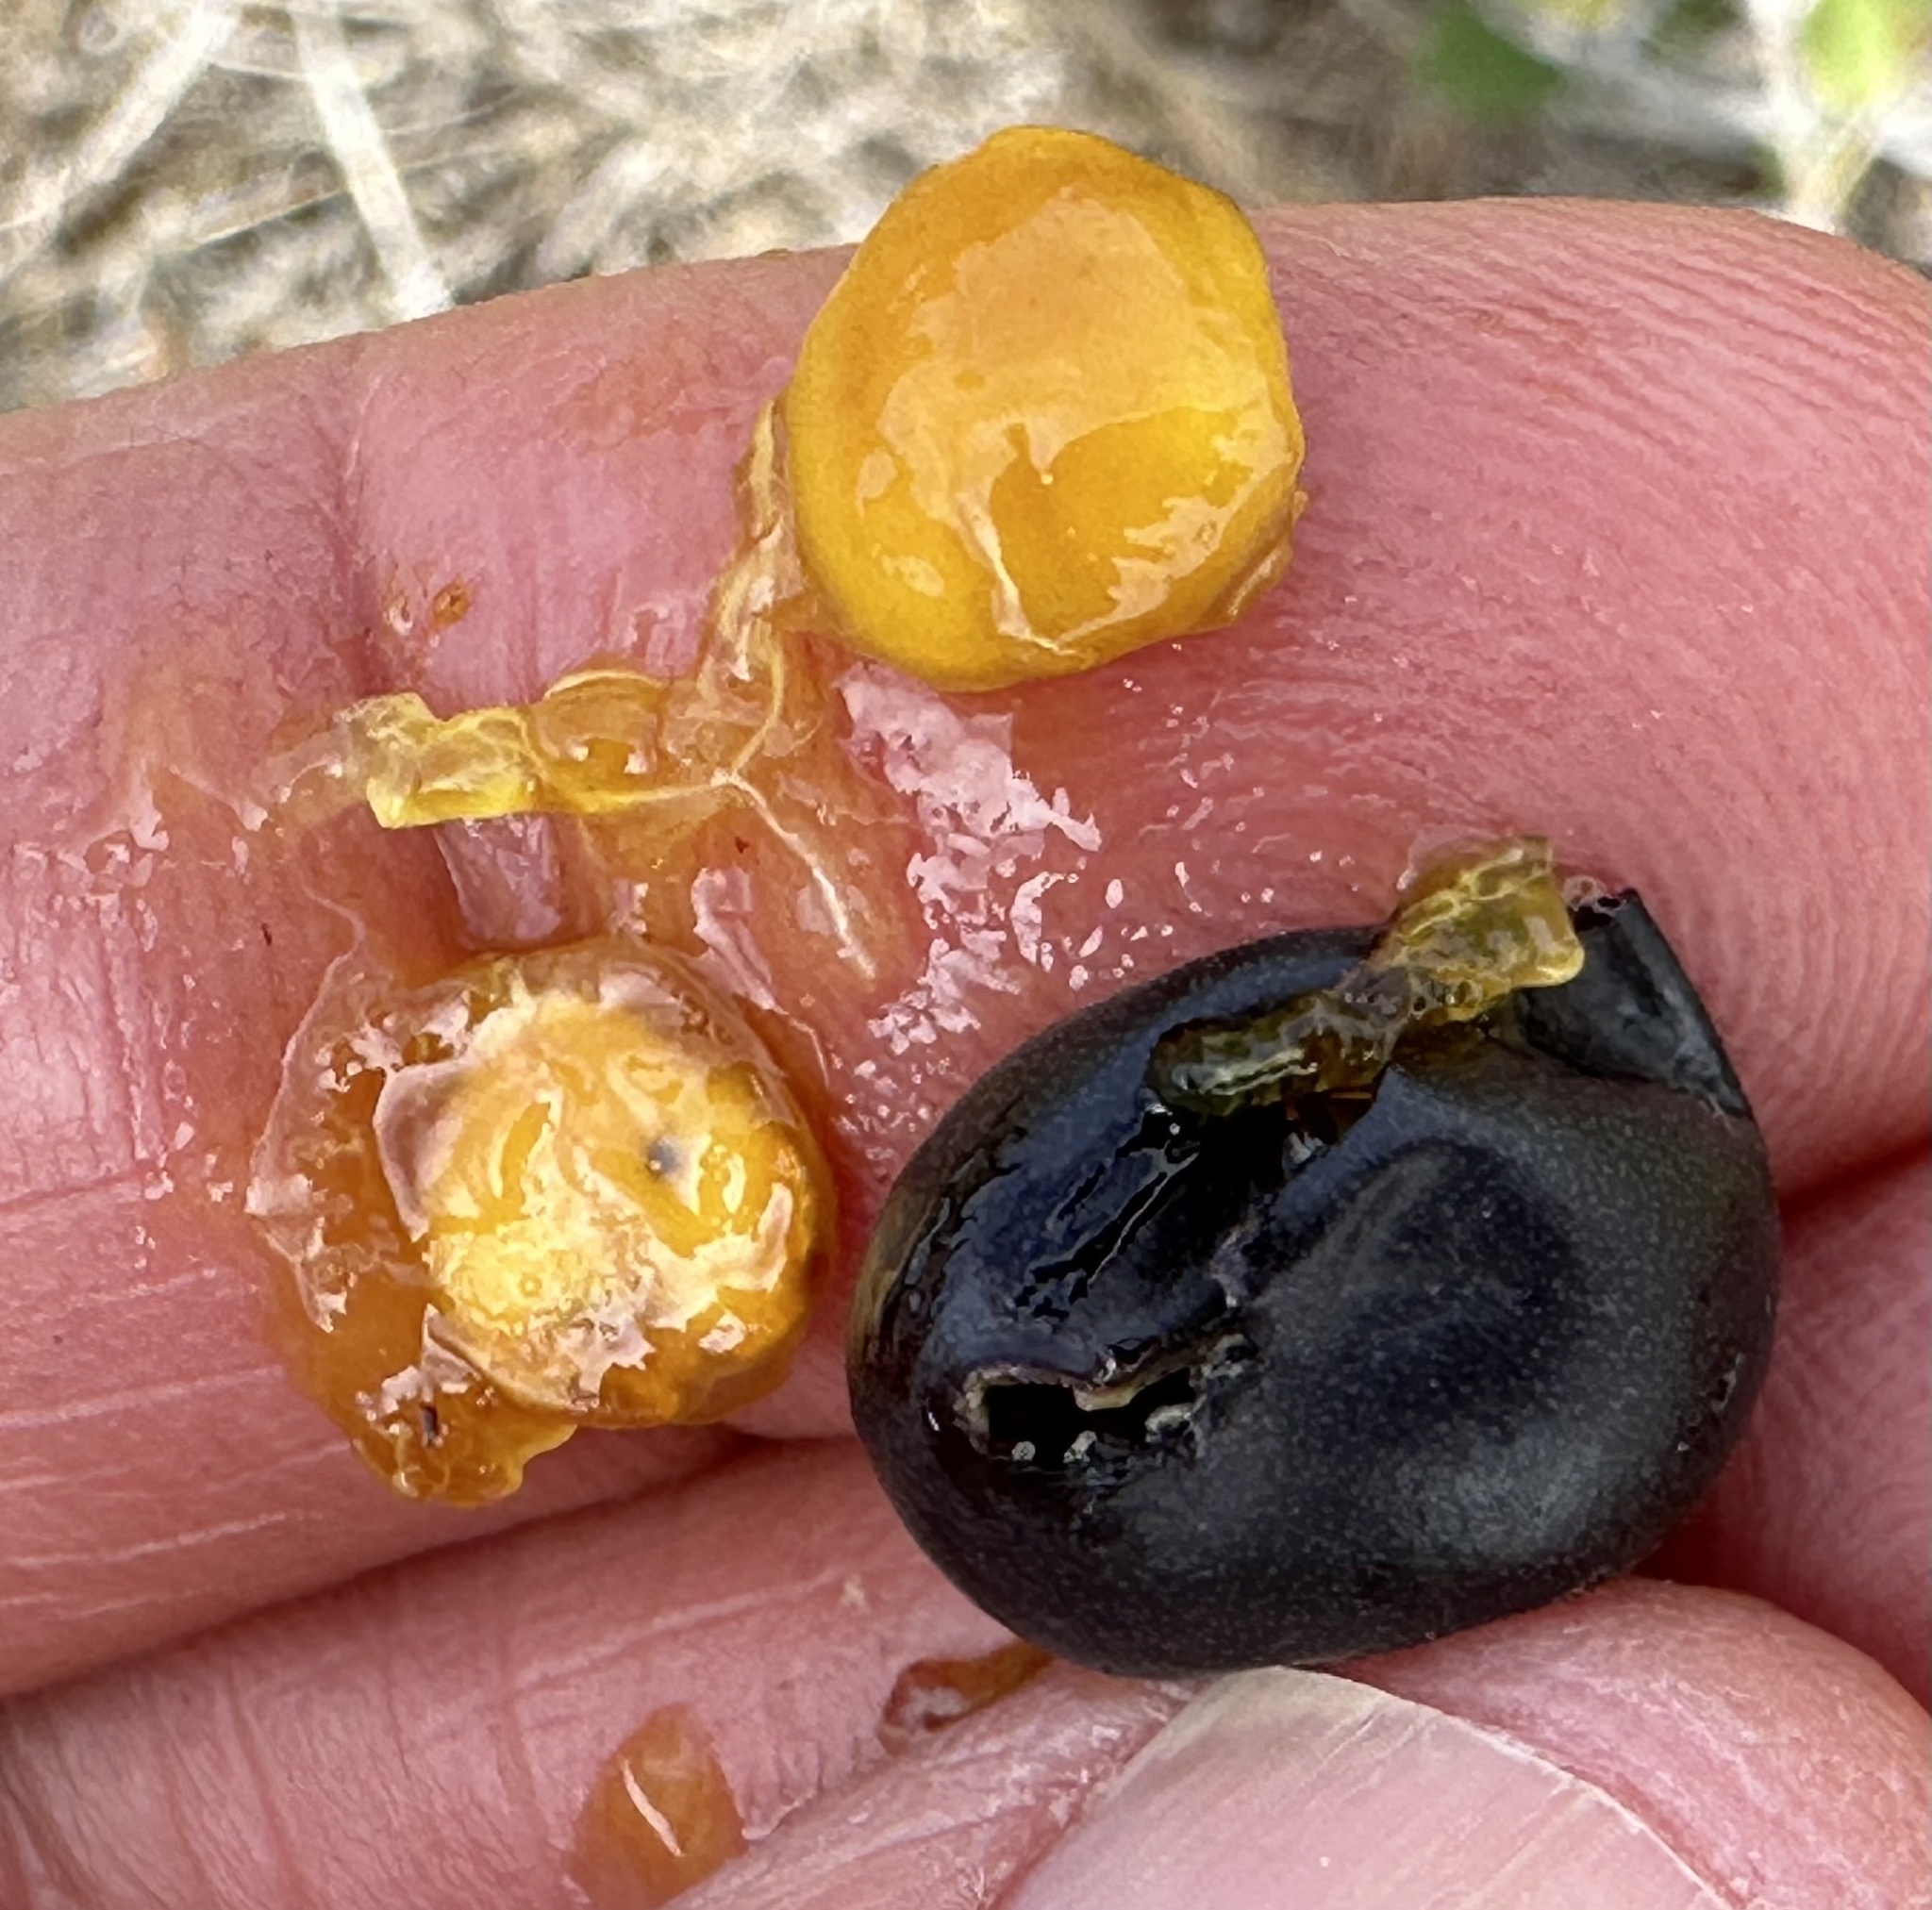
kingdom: Plantae
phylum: Tracheophyta
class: Magnoliopsida
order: Rosales
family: Rhamnaceae
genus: Frangula
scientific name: Frangula californica
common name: California buckthorn
